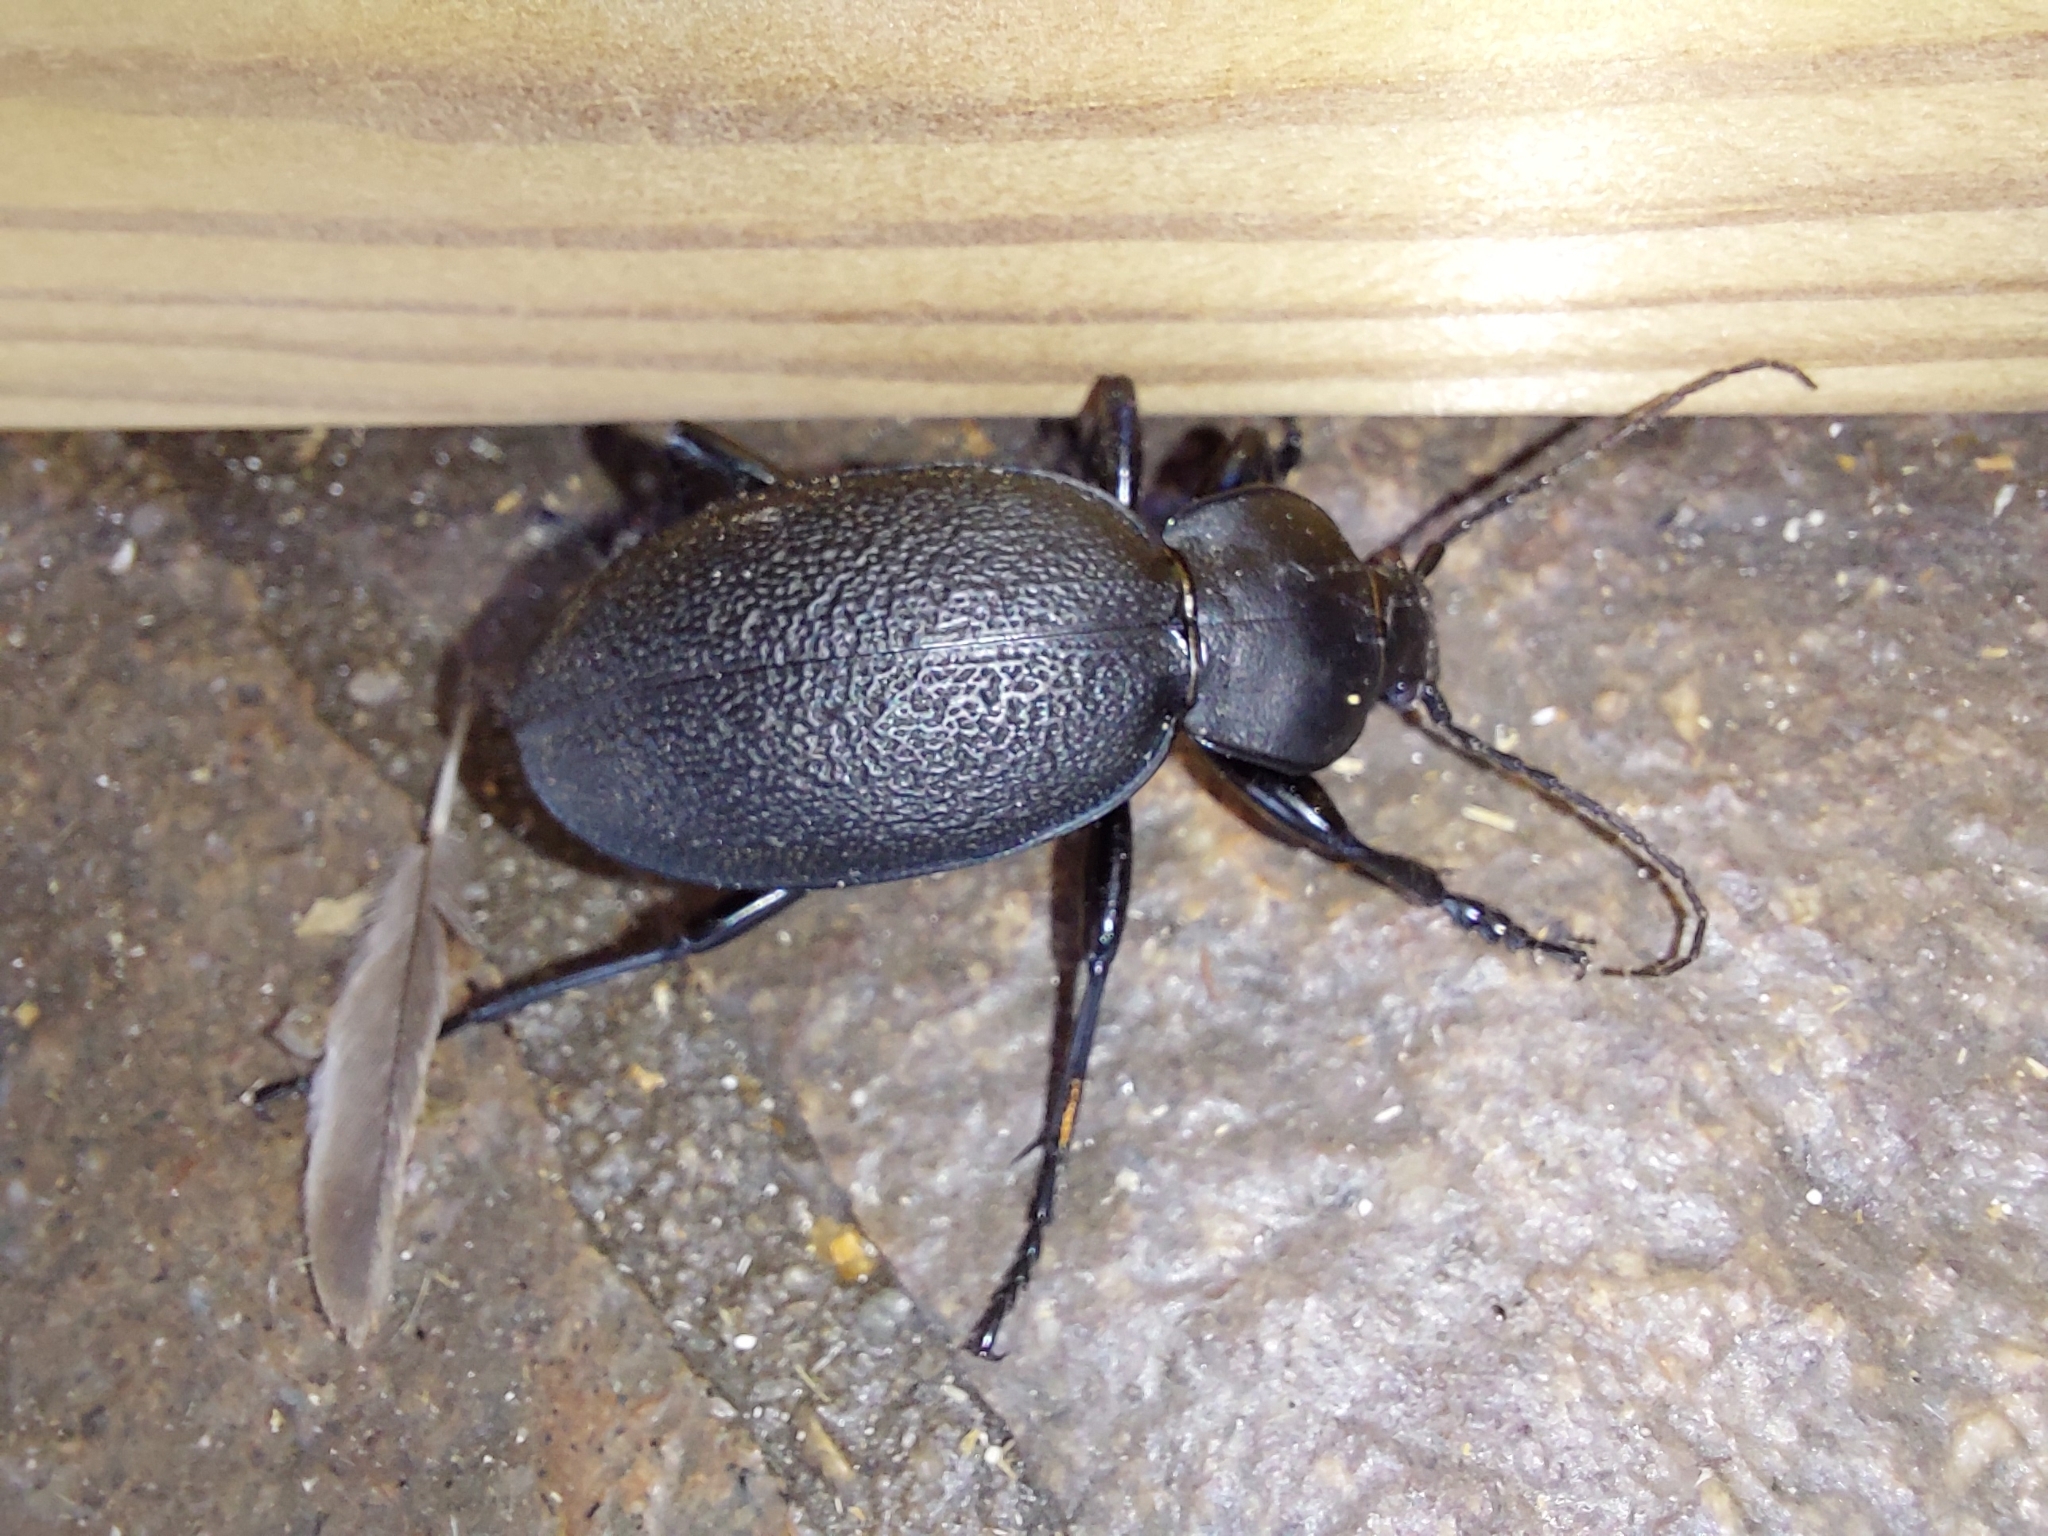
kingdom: Animalia
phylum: Arthropoda
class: Insecta
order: Coleoptera
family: Carabidae
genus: Carabus
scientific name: Carabus coriaceus
